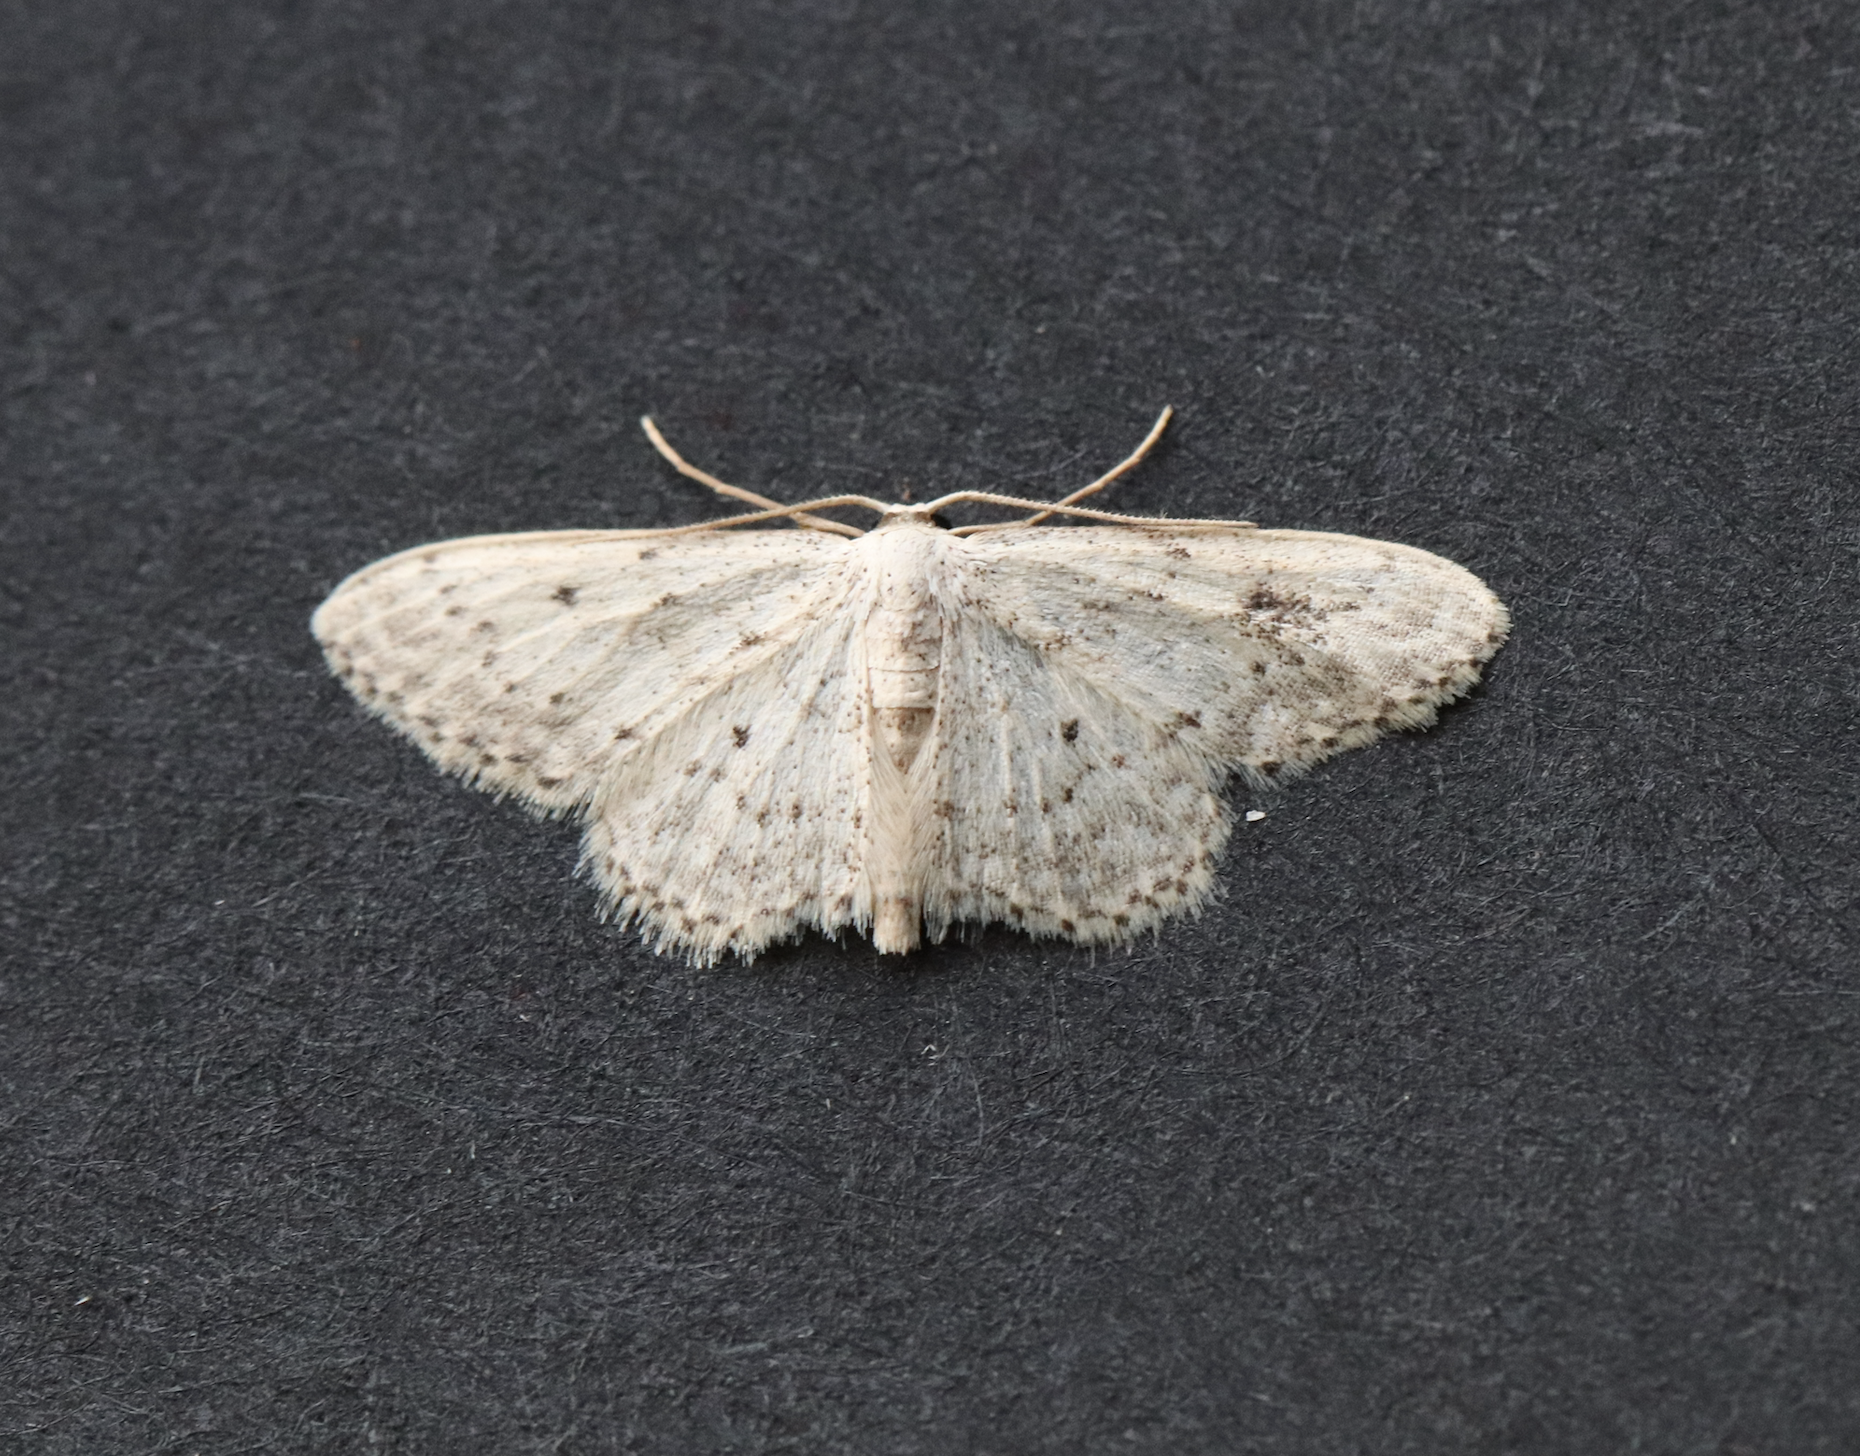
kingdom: Animalia
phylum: Arthropoda
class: Insecta
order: Lepidoptera
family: Geometridae
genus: Idaea
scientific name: Idaea seriata
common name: Small dusty wave
